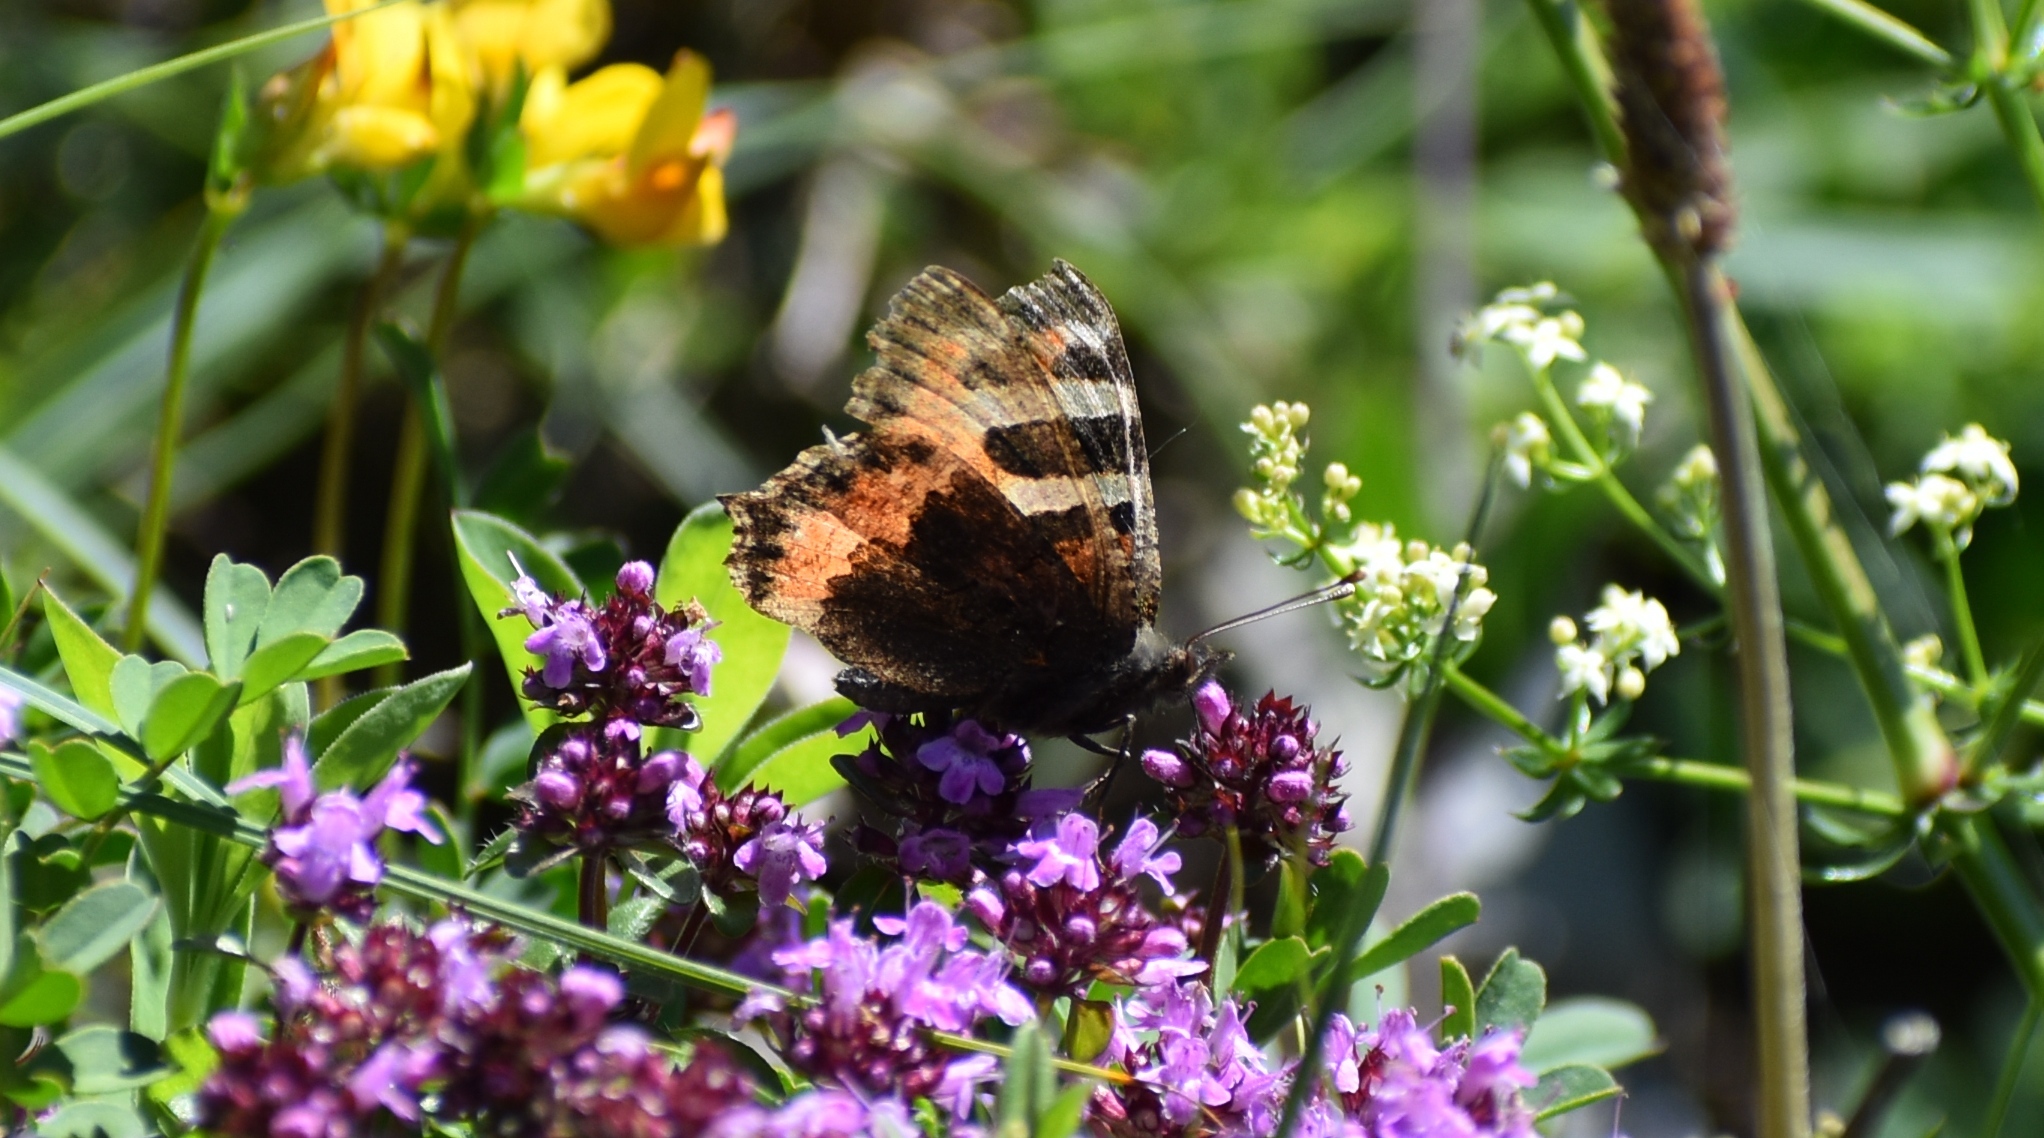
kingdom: Animalia
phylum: Arthropoda
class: Insecta
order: Lepidoptera
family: Nymphalidae
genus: Aglais
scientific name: Aglais urticae
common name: Small tortoiseshell
